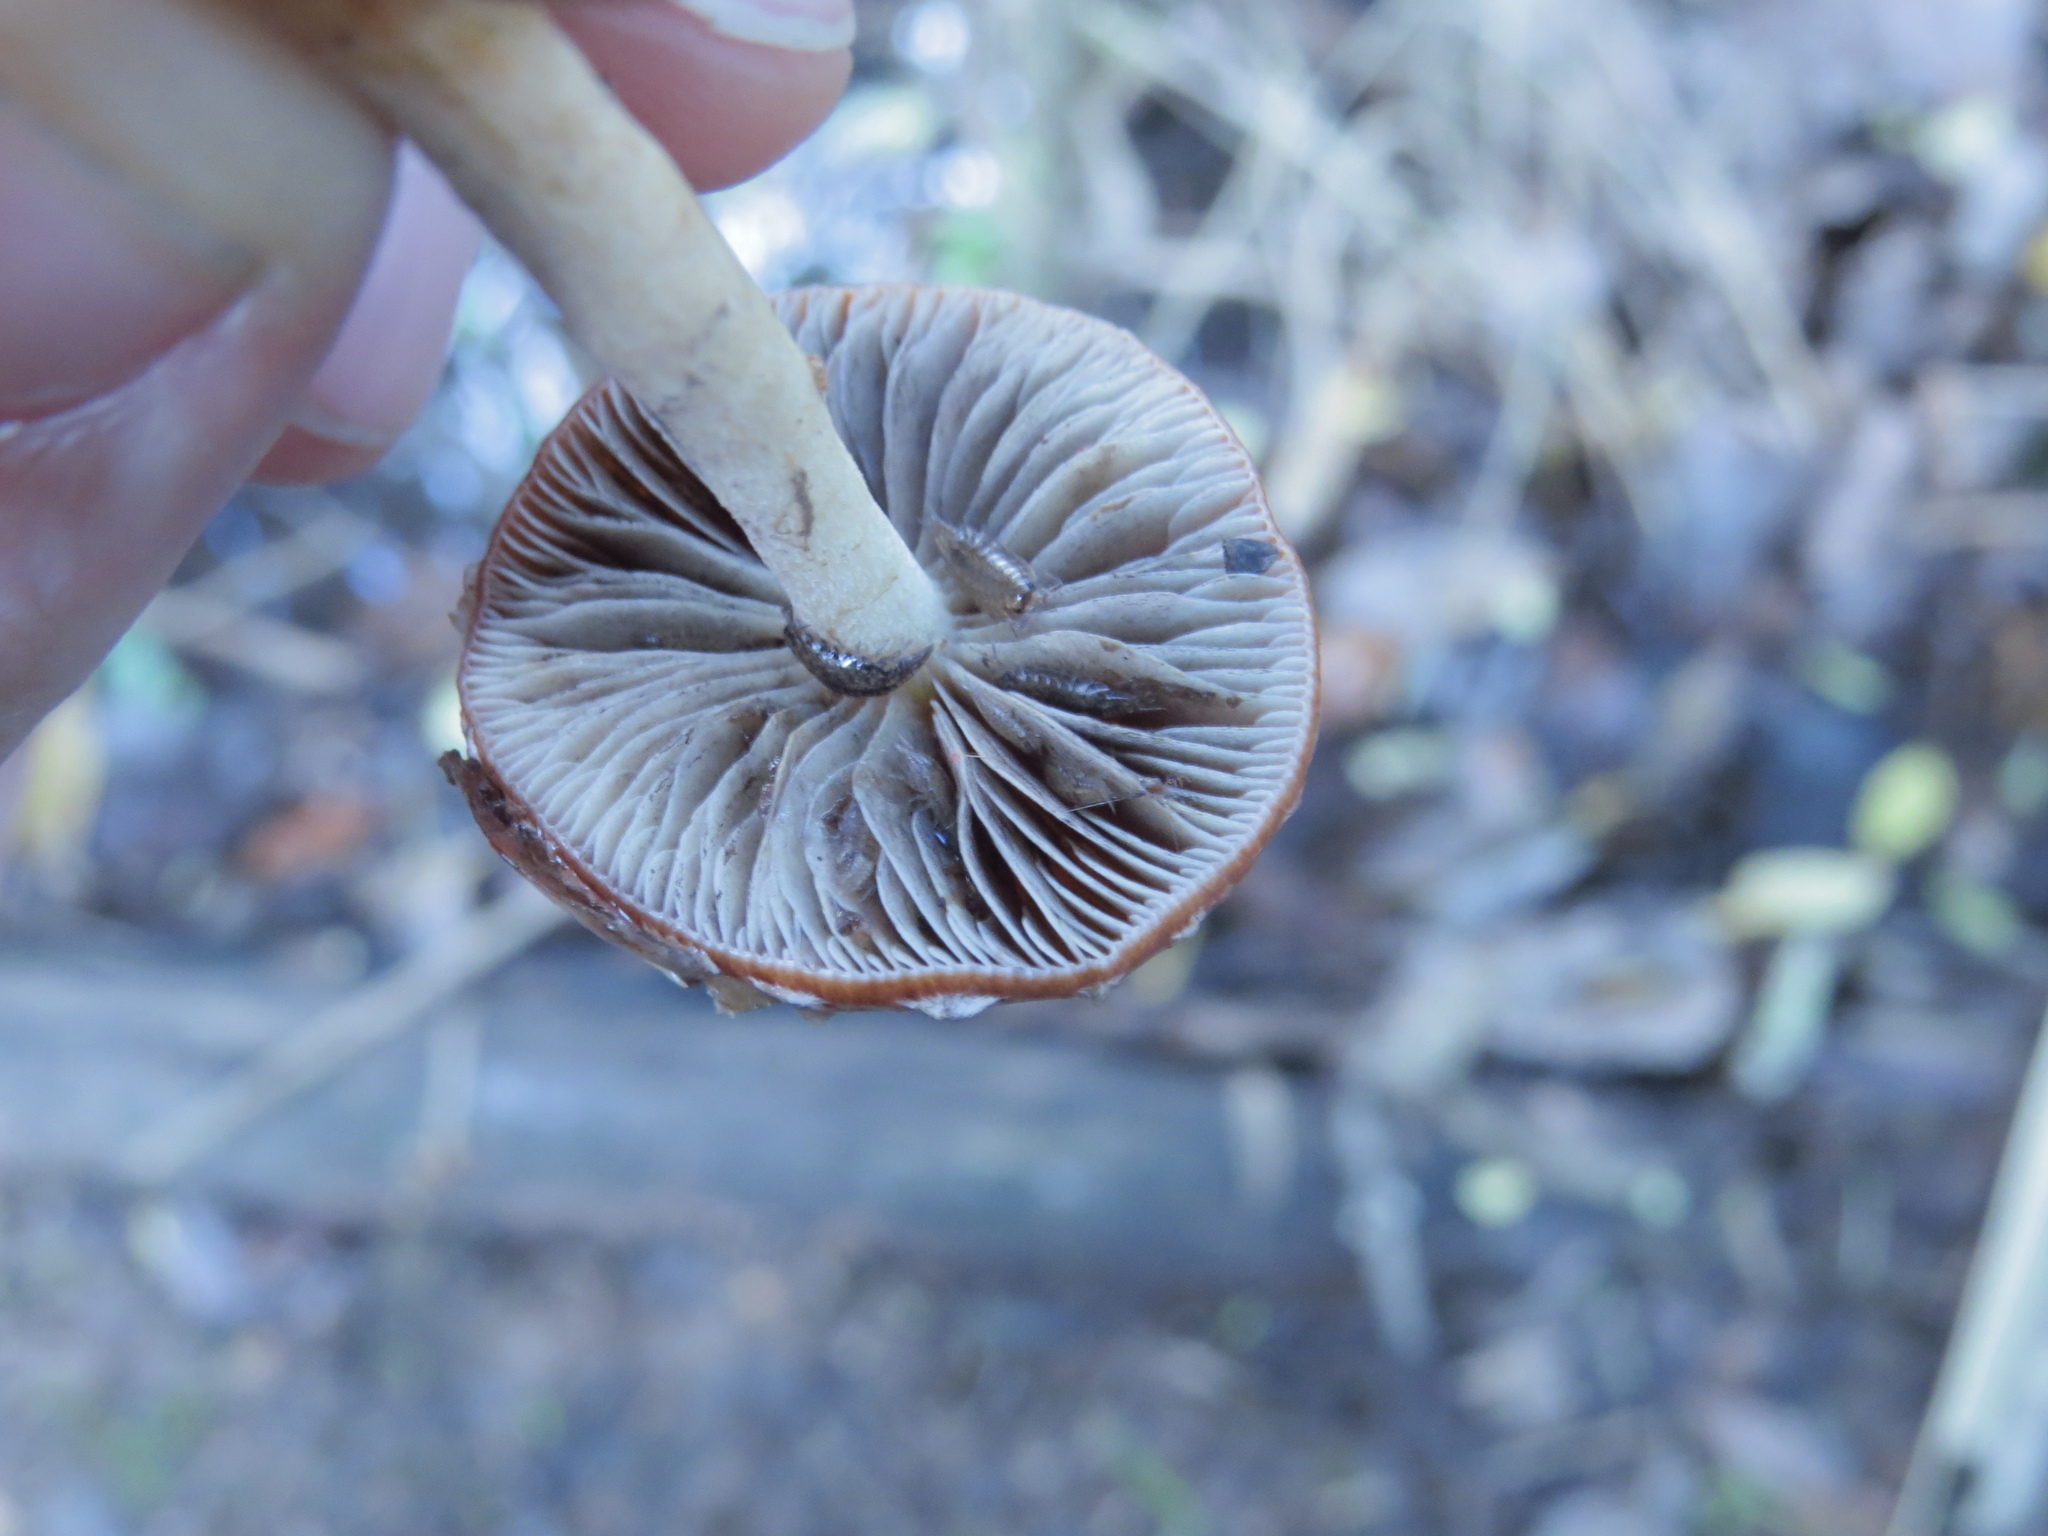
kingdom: Fungi
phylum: Basidiomycota
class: Agaricomycetes
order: Agaricales
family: Strophariaceae
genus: Leratiomyces
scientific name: Leratiomyces ceres
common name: Redlead roundhead
